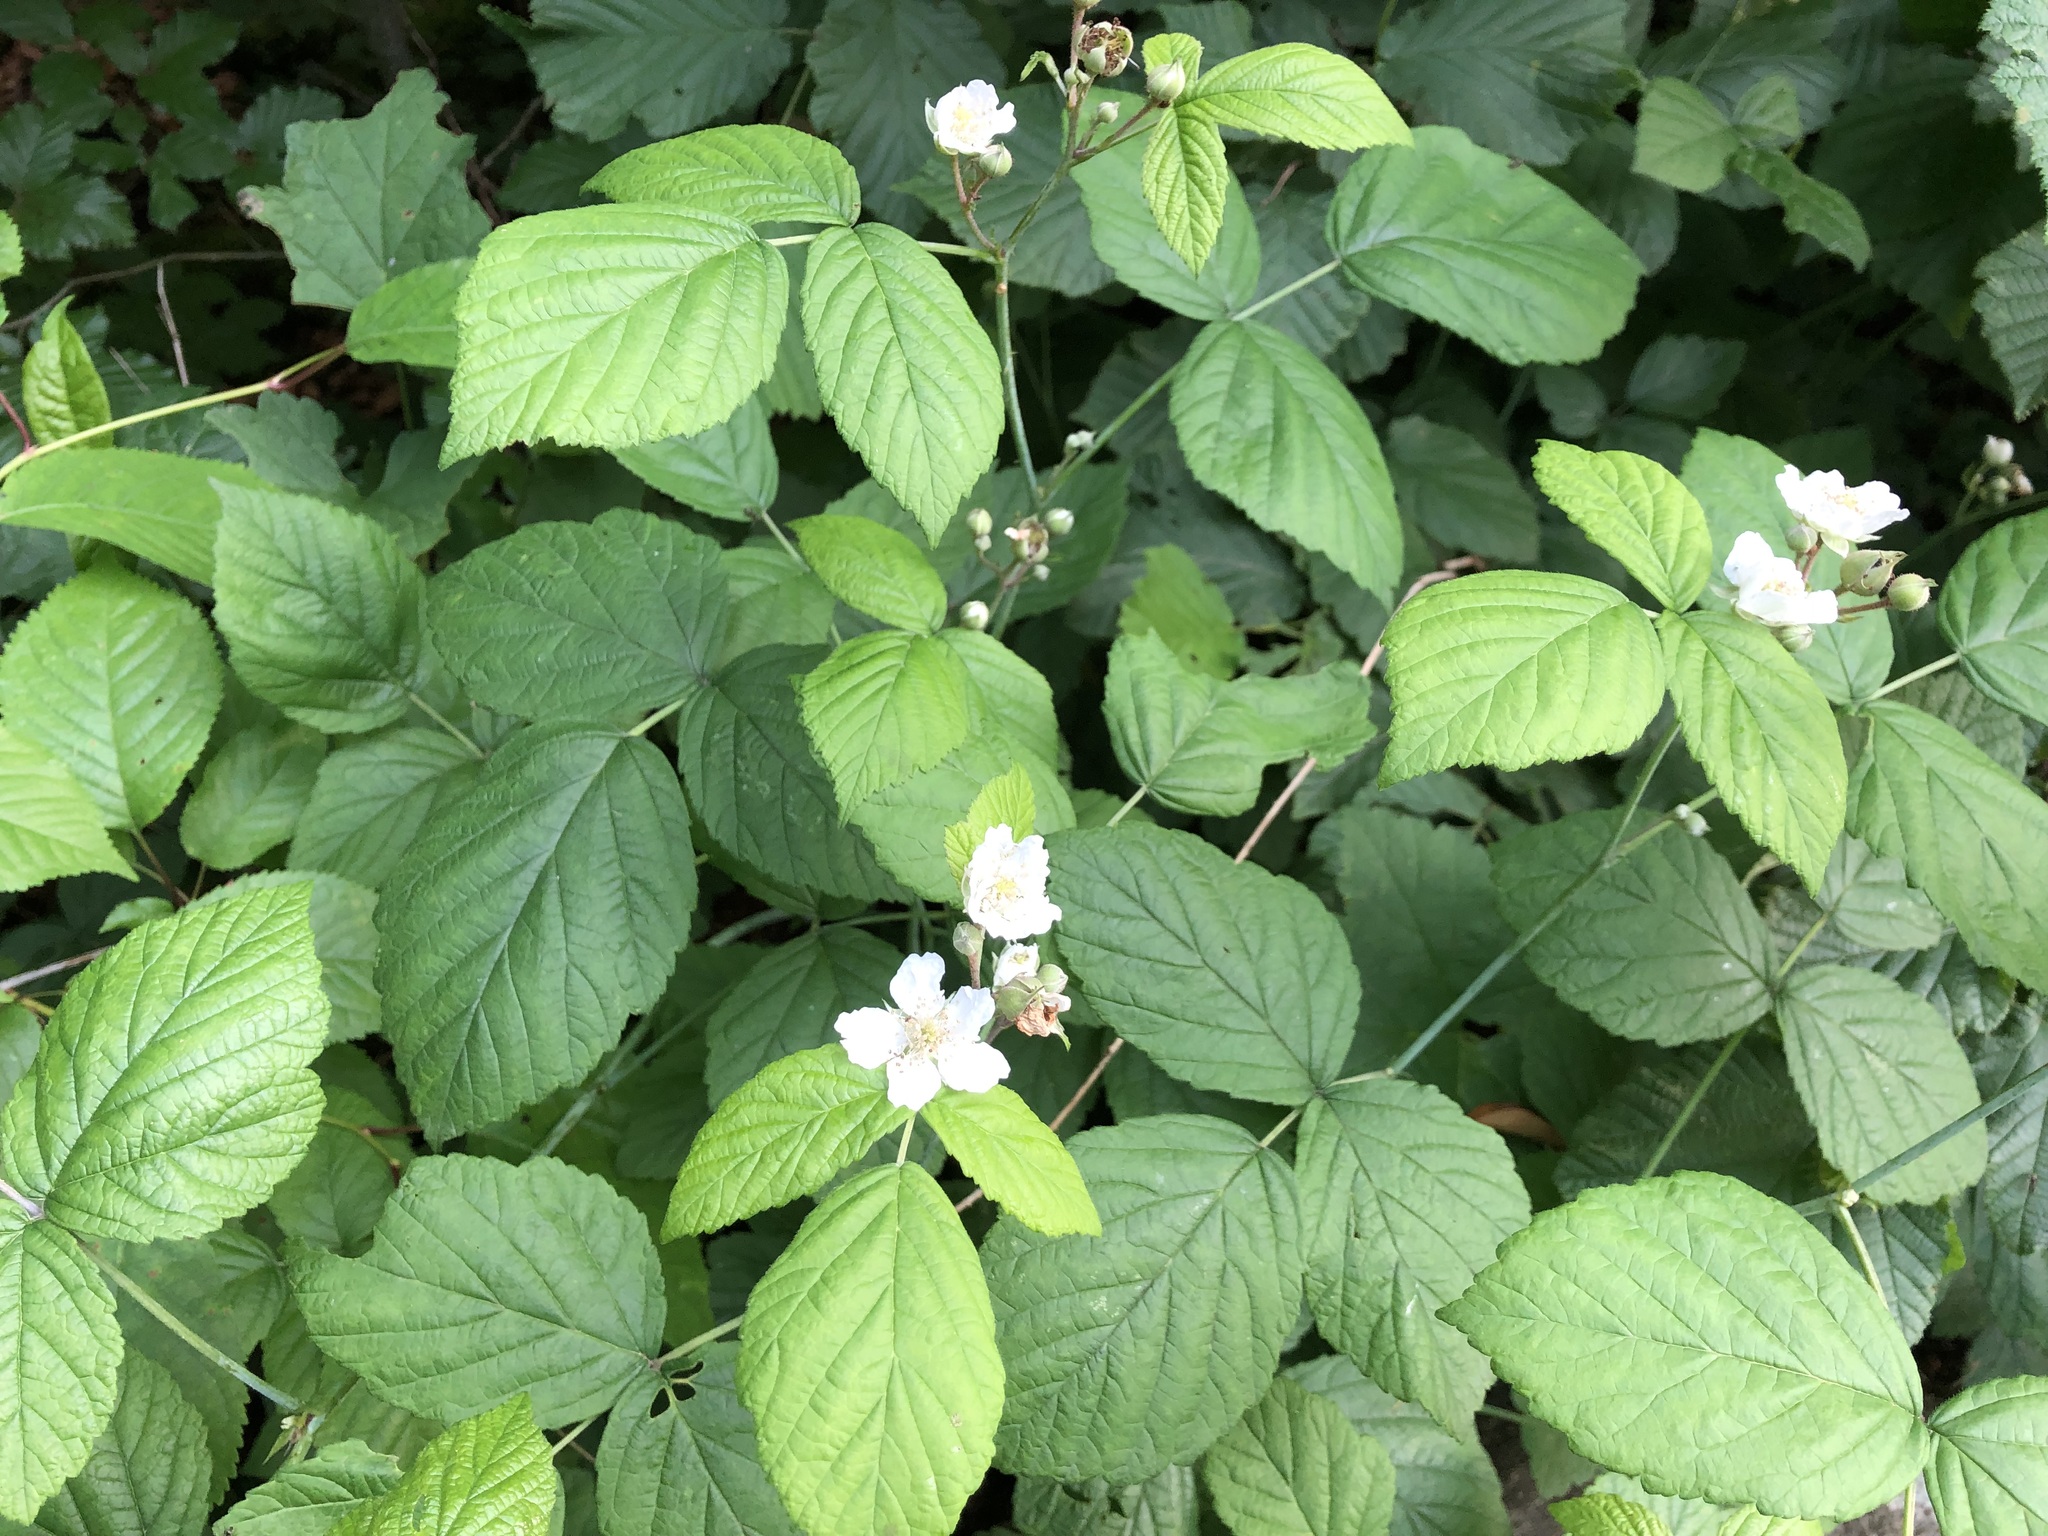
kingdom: Plantae
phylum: Tracheophyta
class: Magnoliopsida
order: Rosales
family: Rosaceae
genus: Rubus
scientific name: Rubus caesius
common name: Dewberry
